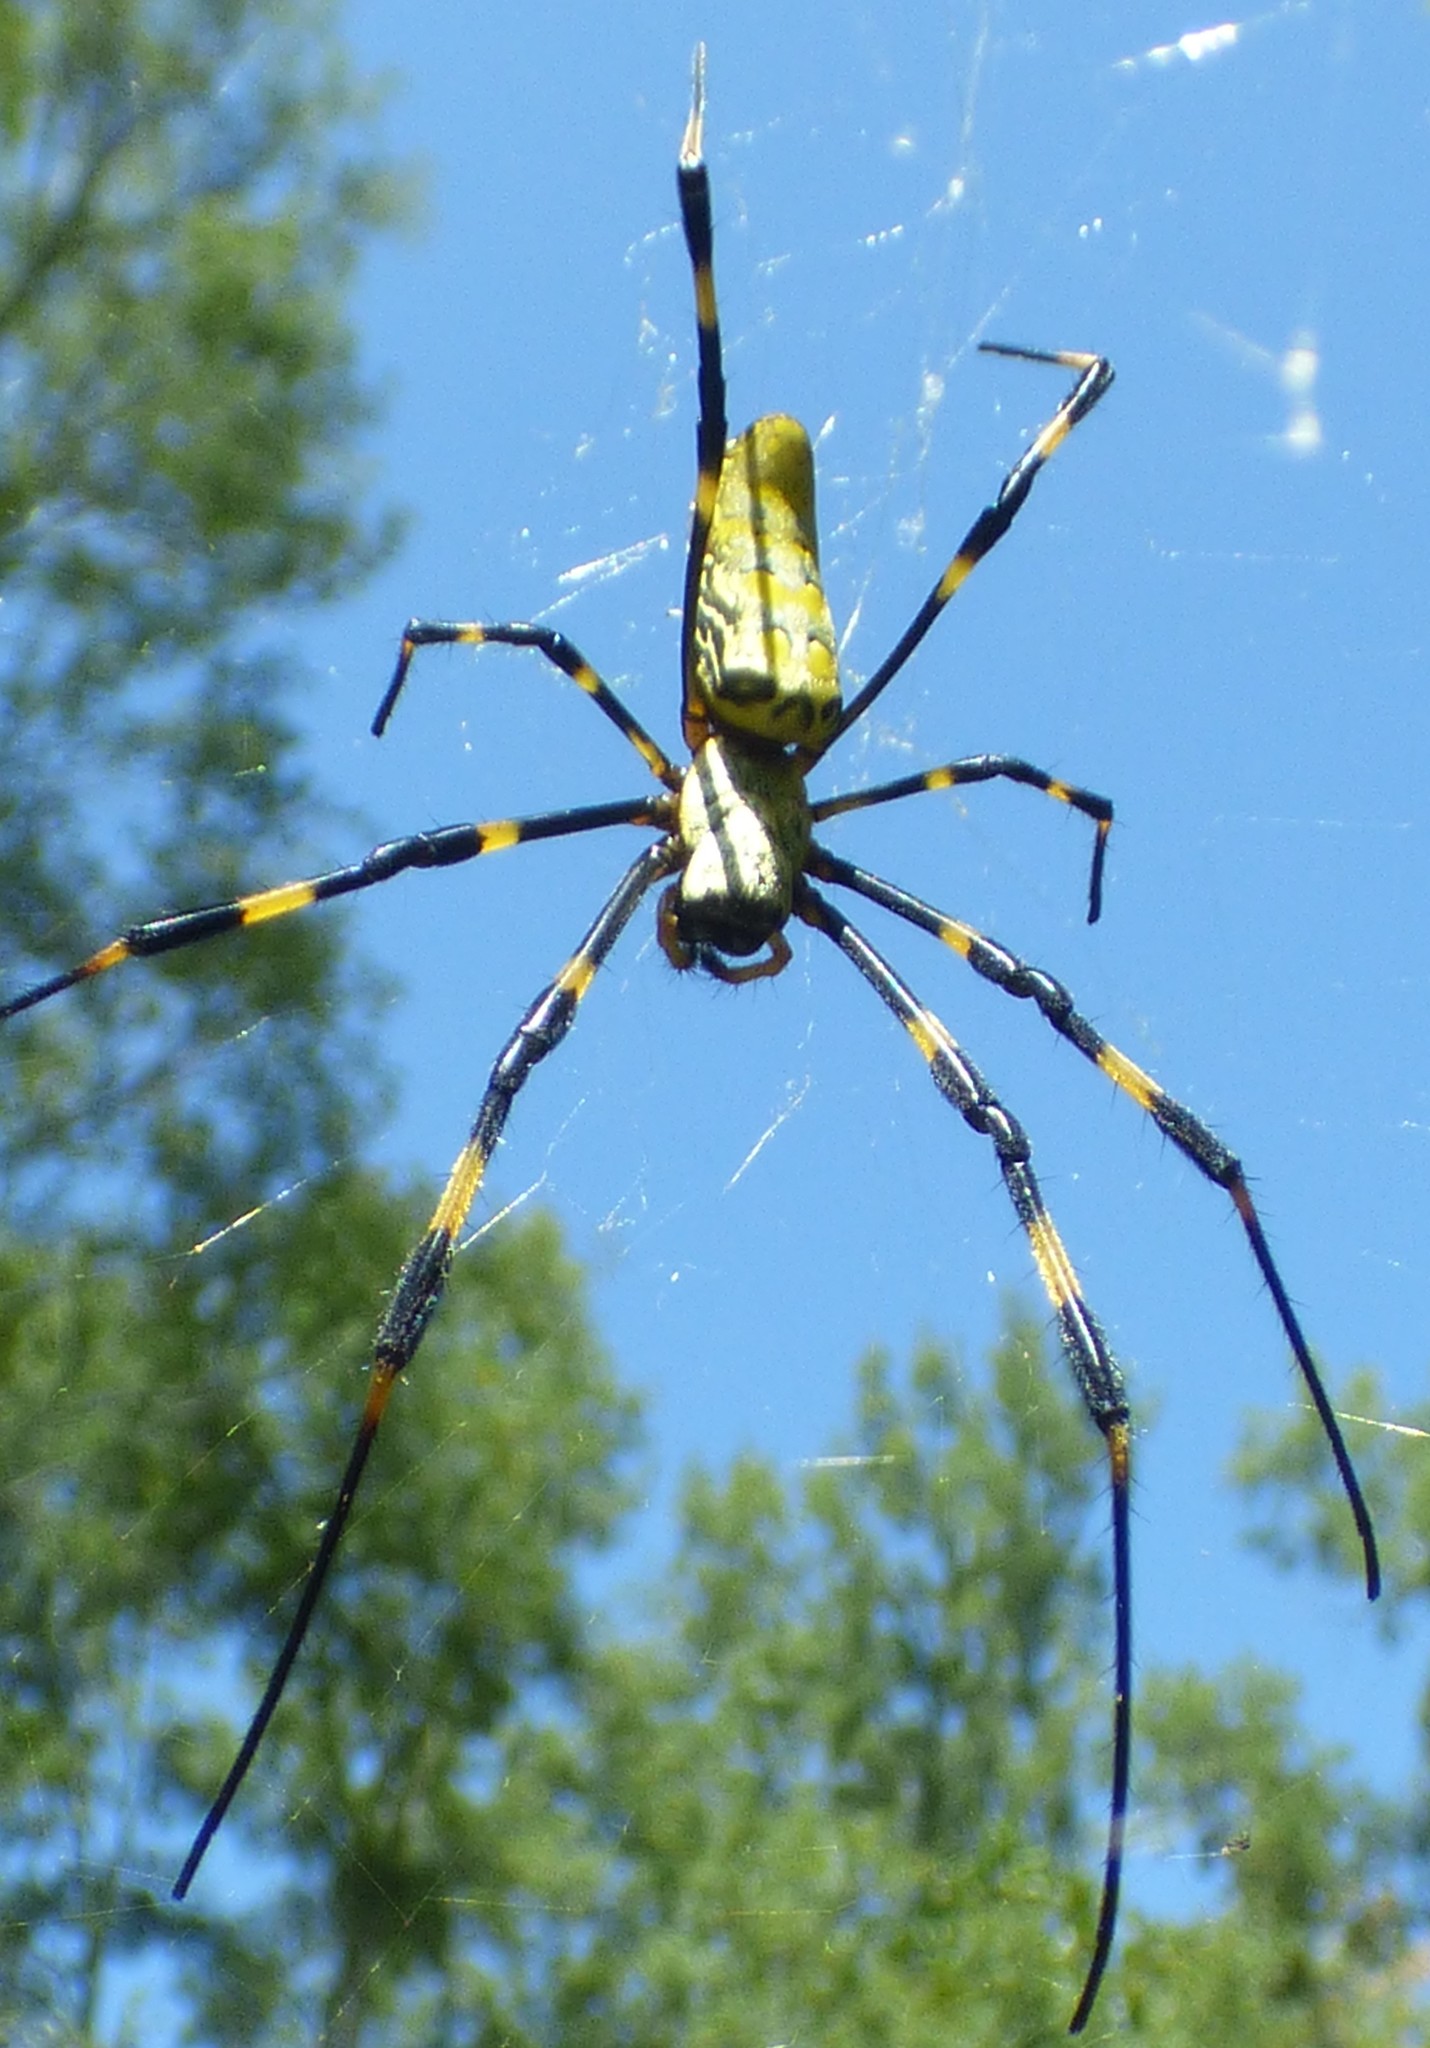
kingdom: Animalia
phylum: Arthropoda
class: Arachnida
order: Araneae
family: Araneidae
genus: Trichonephila
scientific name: Trichonephila clavata
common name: Jorō spider
